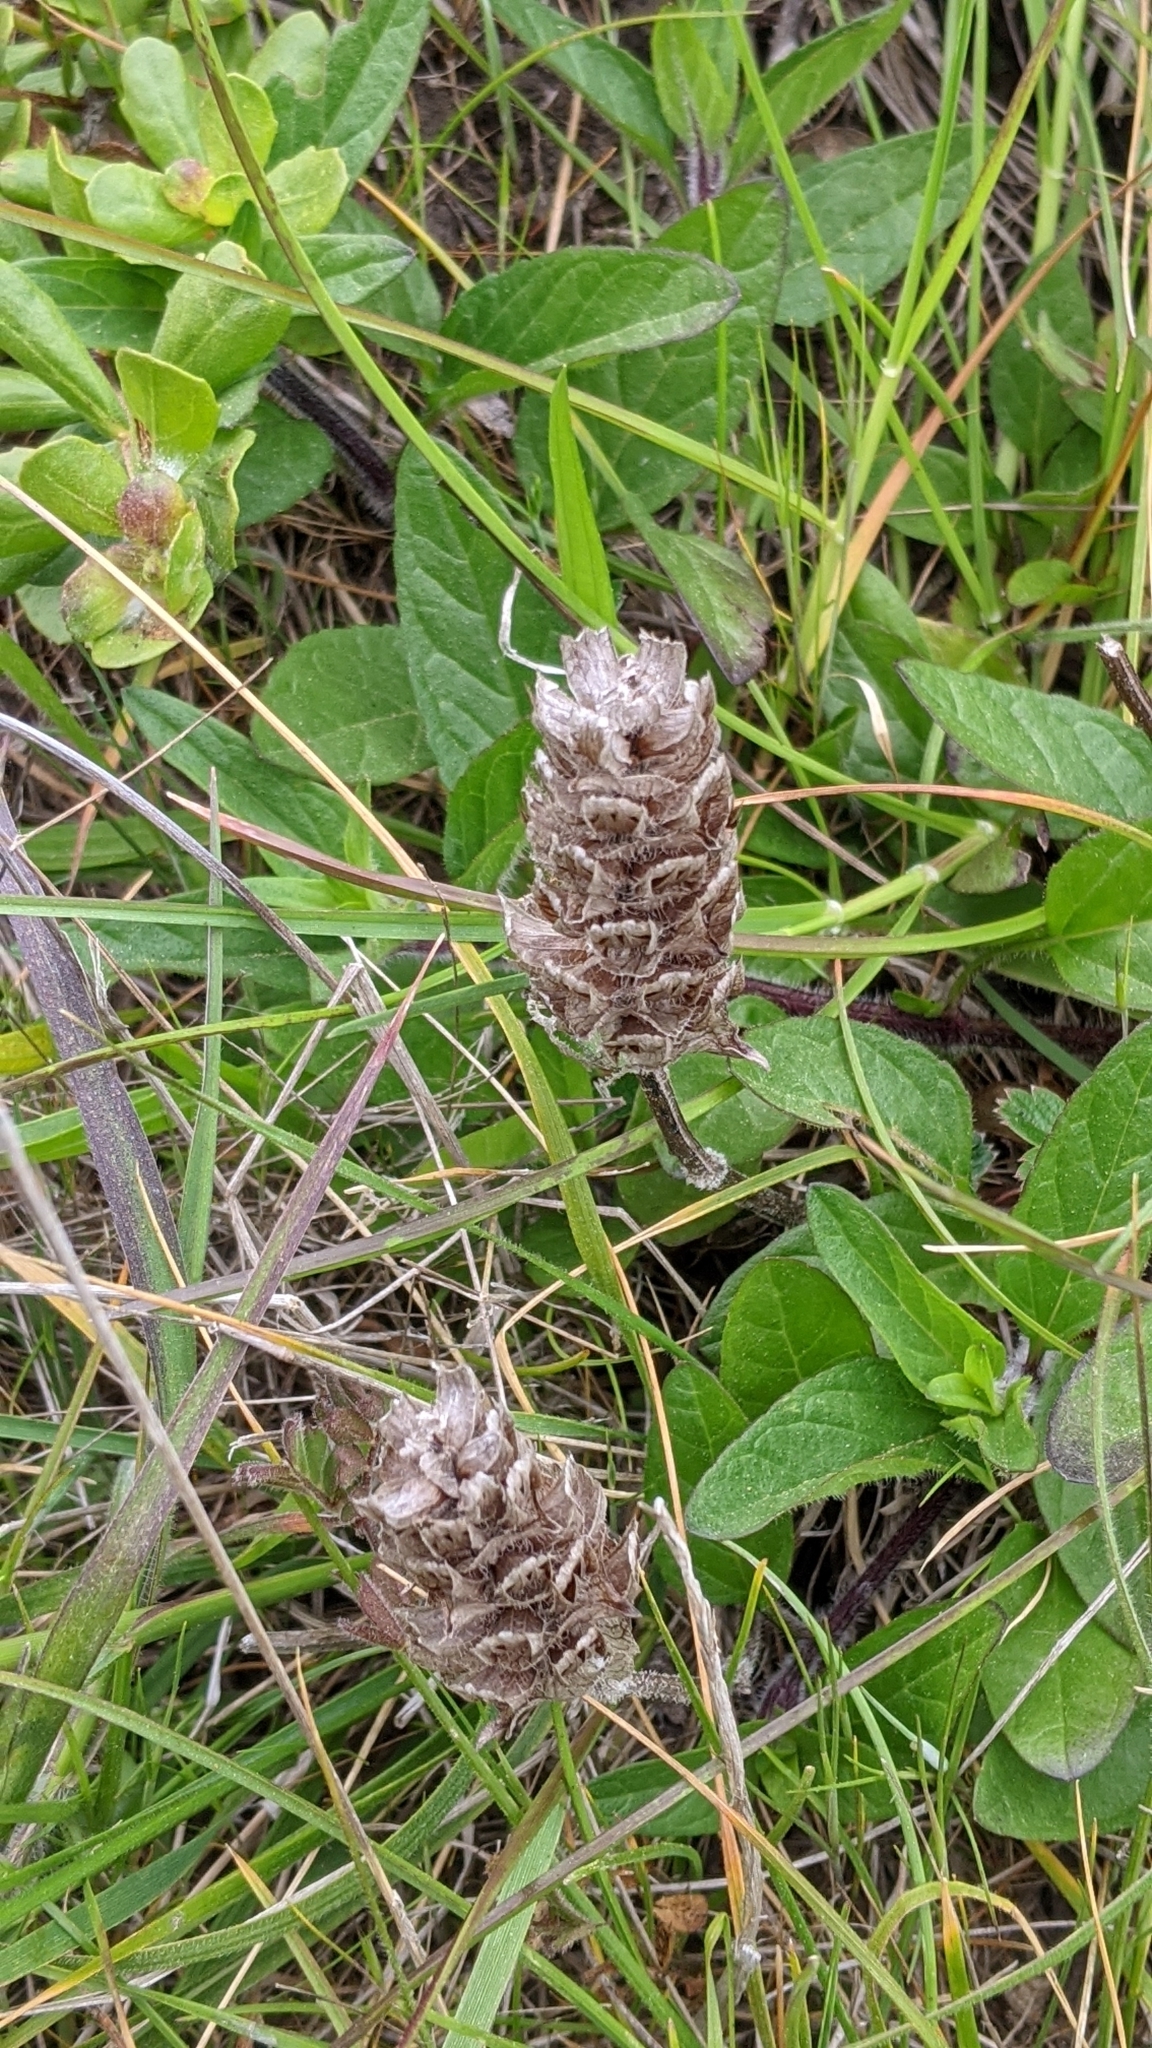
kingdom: Plantae
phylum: Tracheophyta
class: Magnoliopsida
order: Lamiales
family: Lamiaceae
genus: Prunella
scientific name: Prunella vulgaris
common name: Heal-all
